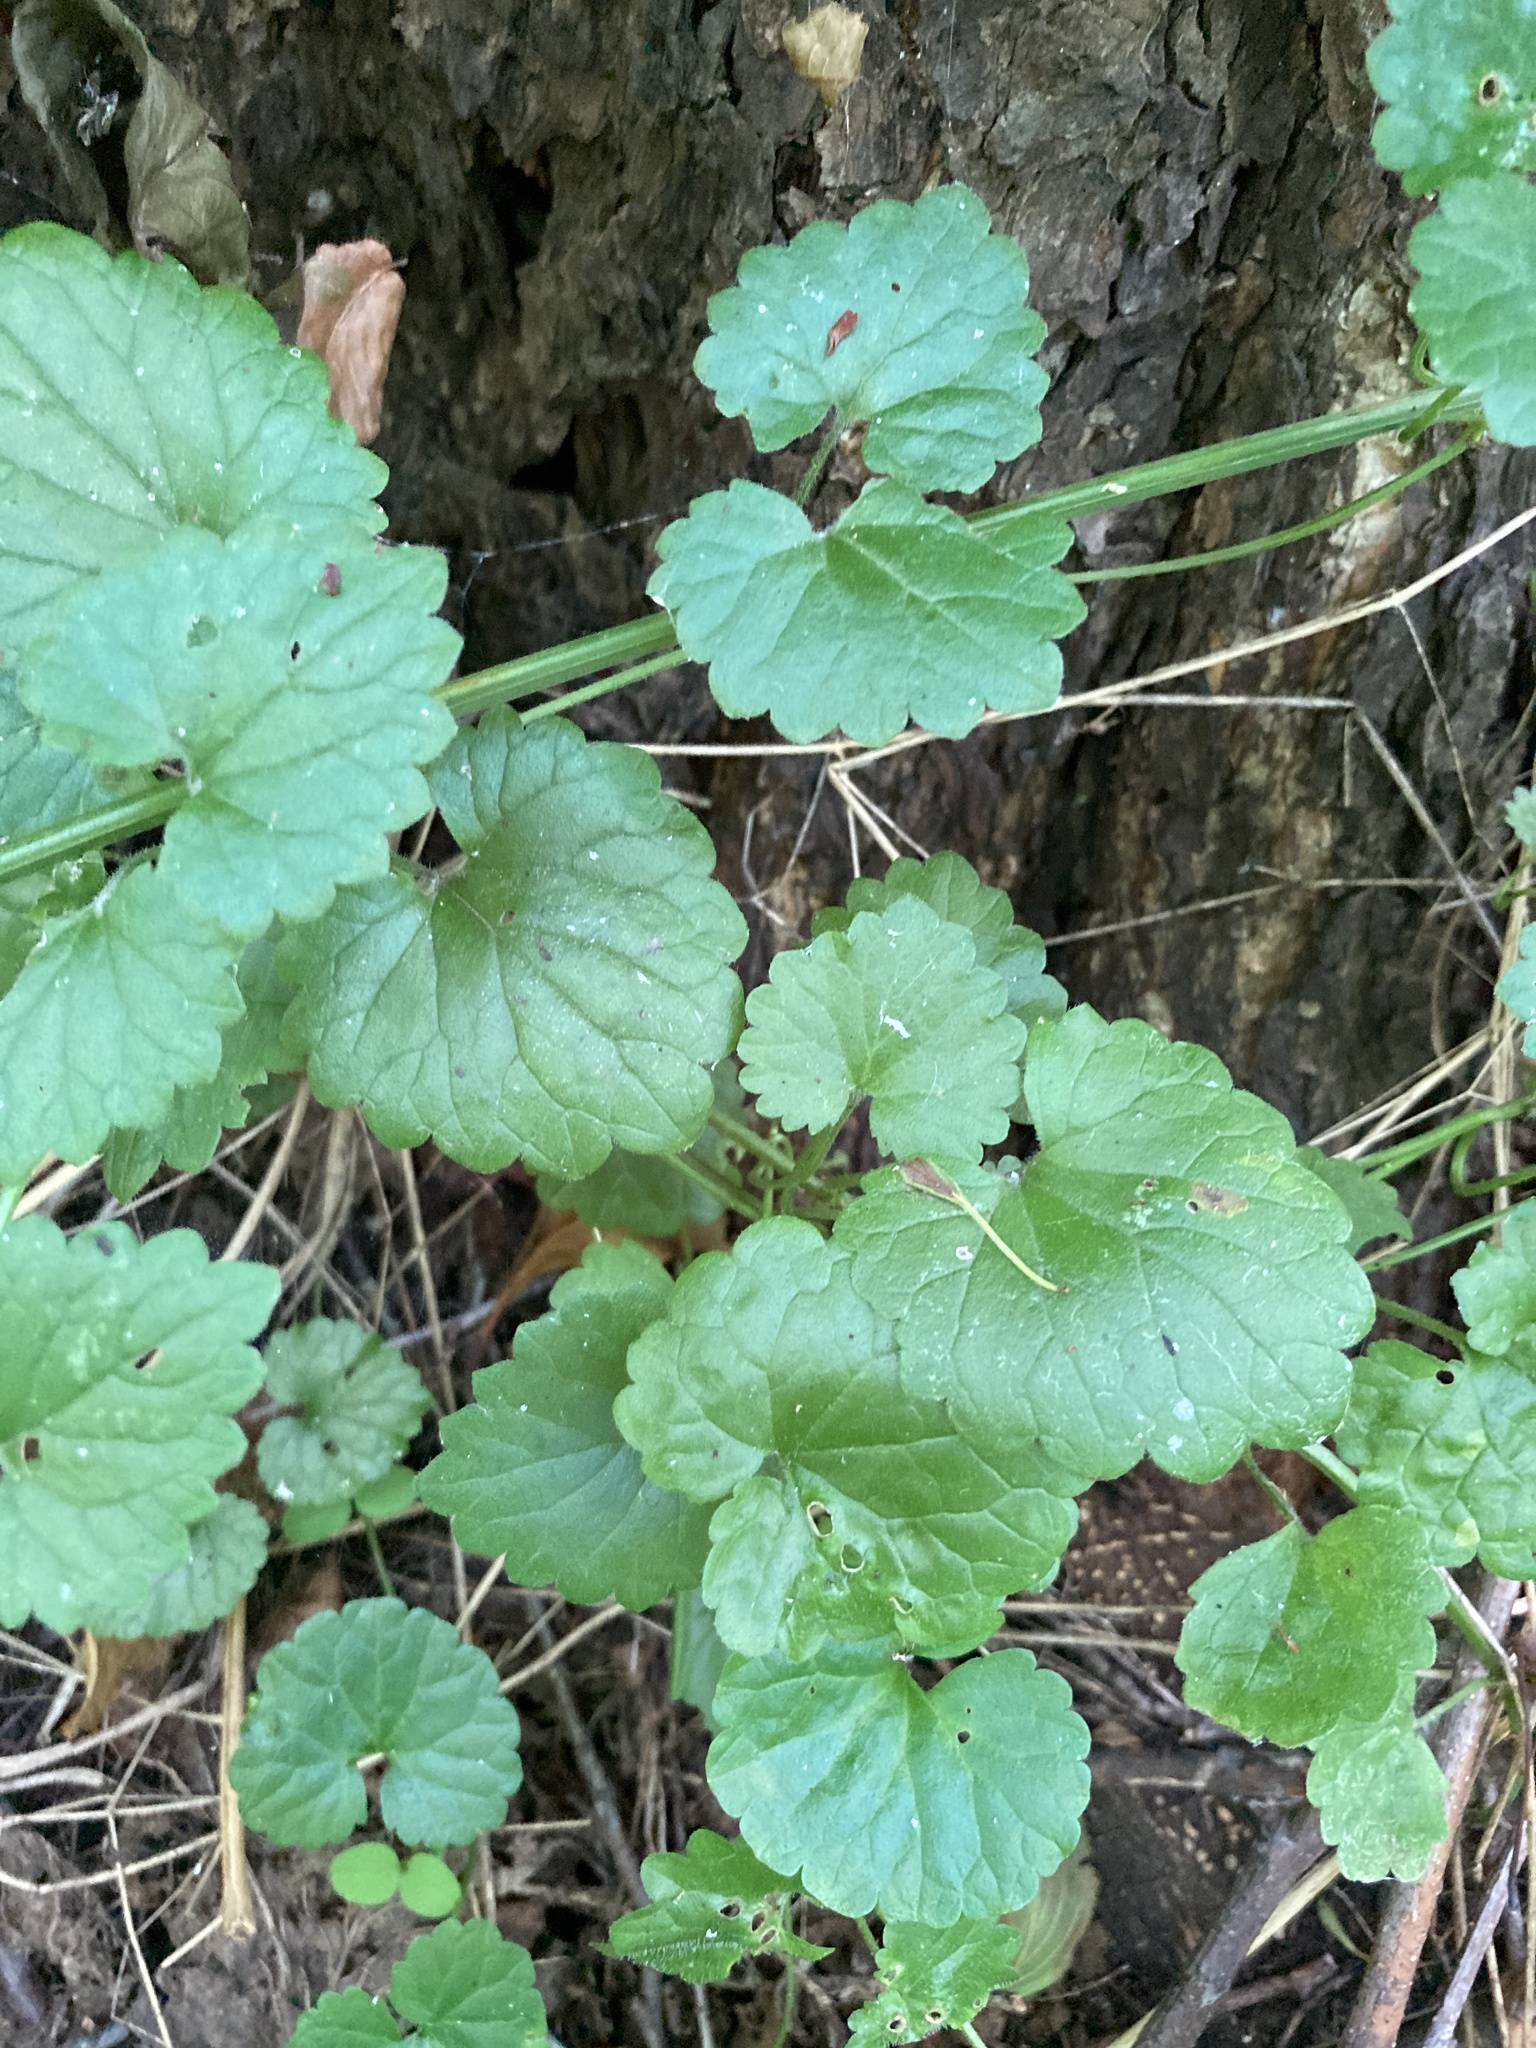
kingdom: Plantae
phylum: Tracheophyta
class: Magnoliopsida
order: Lamiales
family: Lamiaceae
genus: Glechoma
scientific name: Glechoma hederacea
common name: Ground ivy
